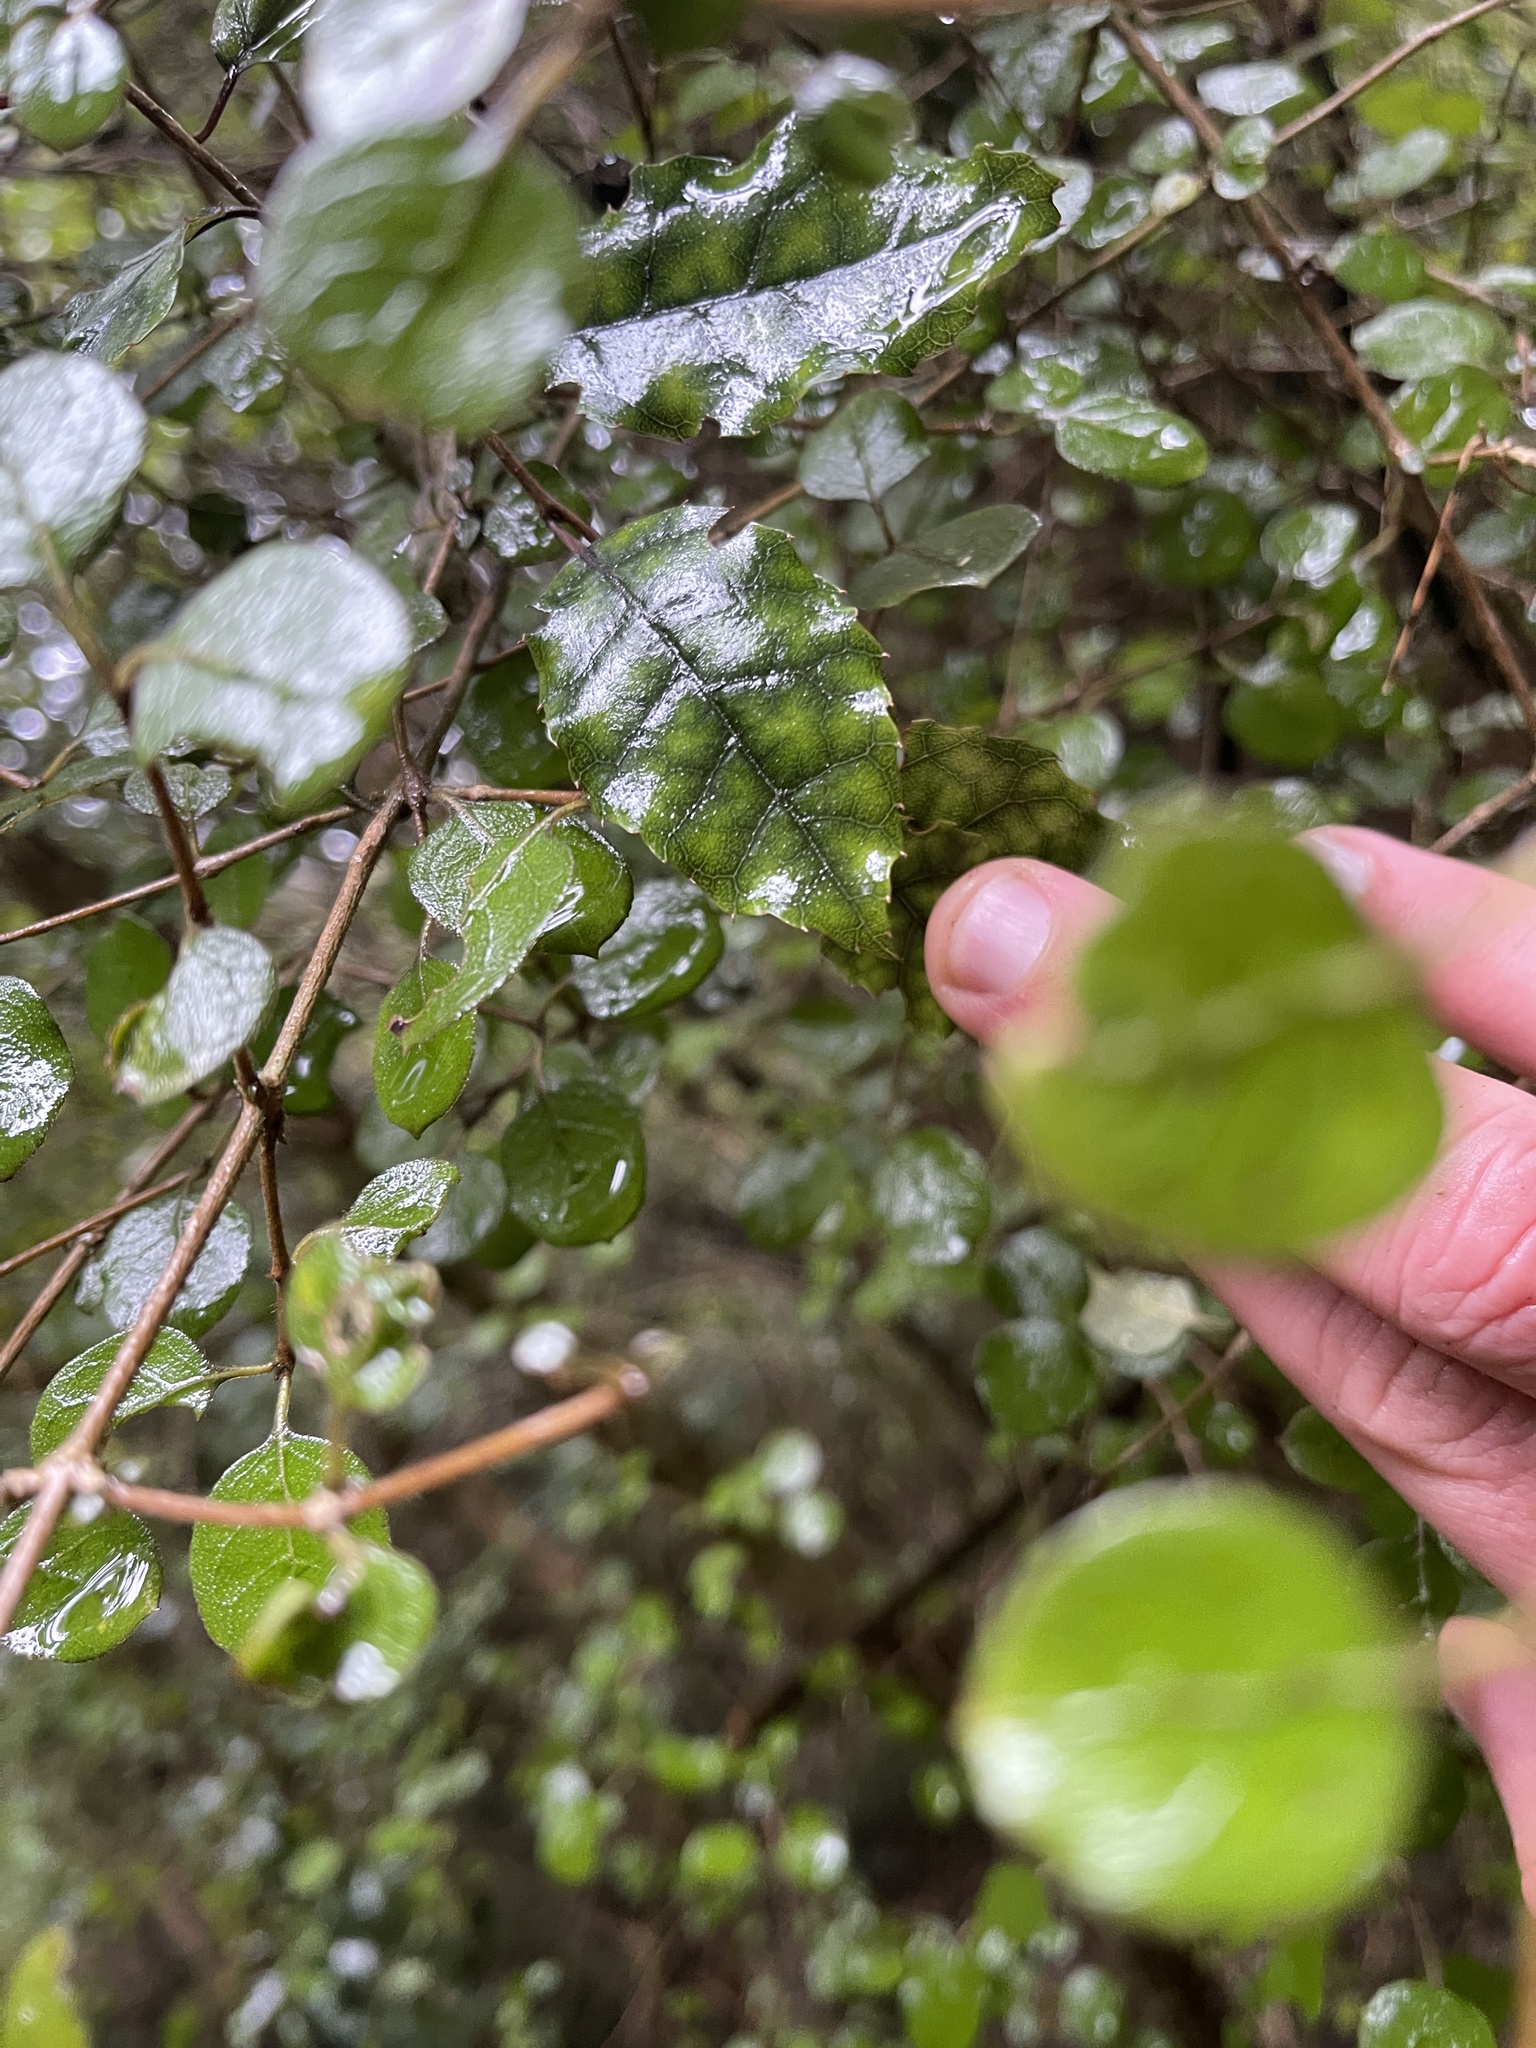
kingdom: Plantae
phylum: Tracheophyta
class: Magnoliopsida
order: Asterales
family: Rousseaceae
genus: Carpodetus
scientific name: Carpodetus serratus
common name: White mapau
